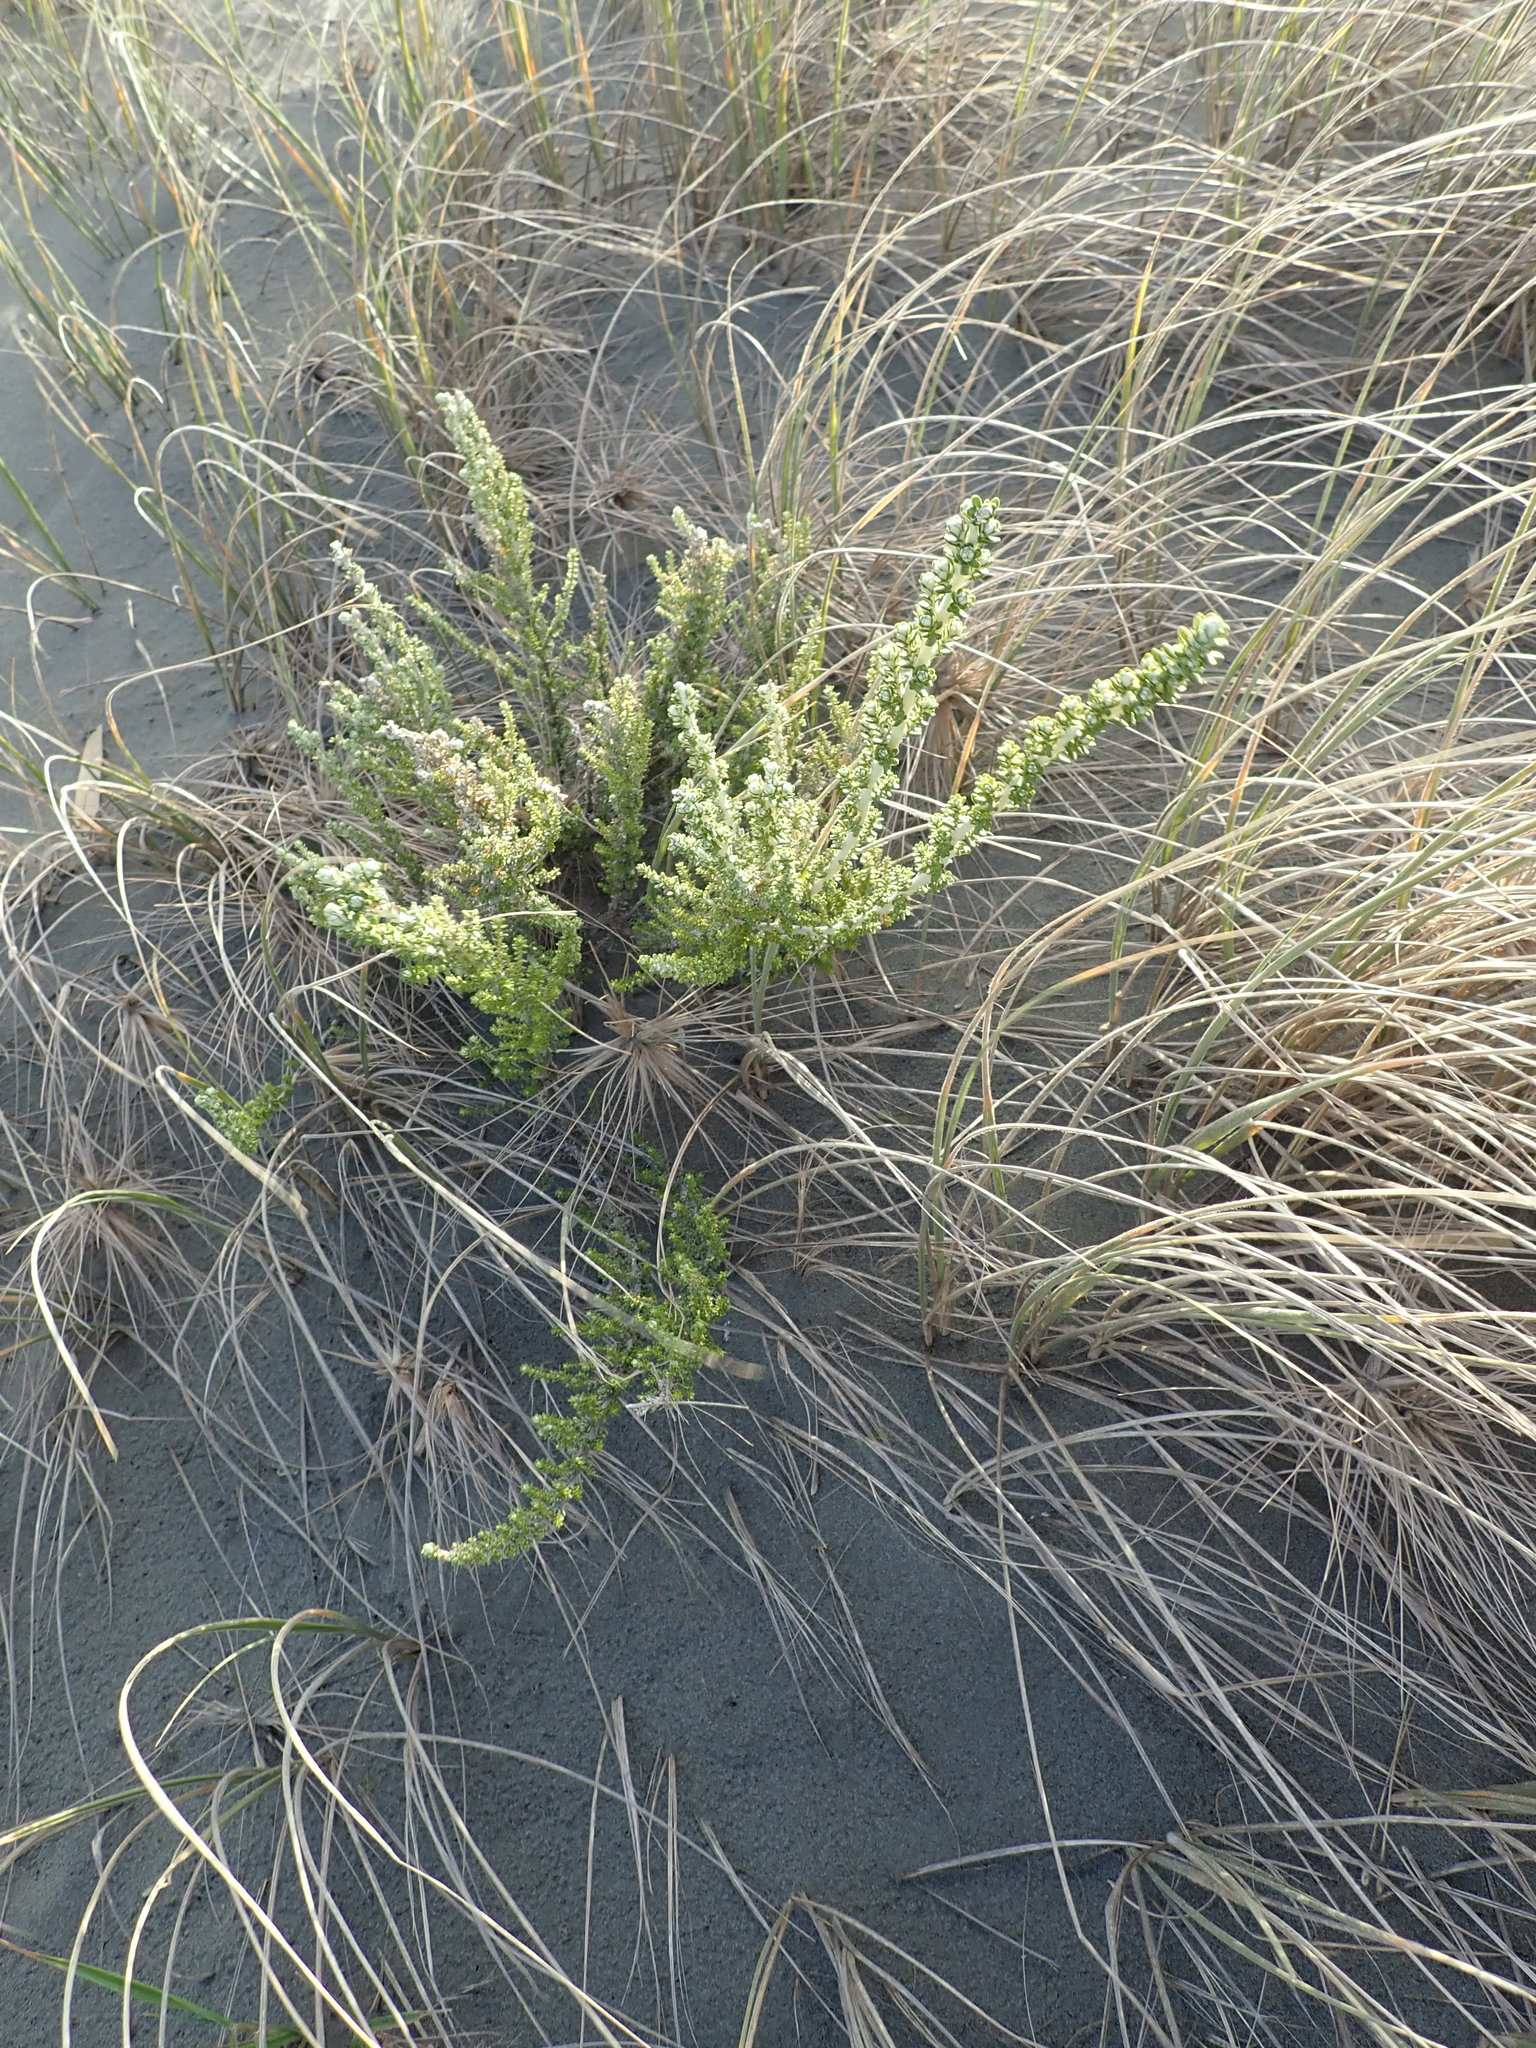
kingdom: Plantae
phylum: Tracheophyta
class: Magnoliopsida
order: Asterales
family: Asteraceae
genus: Ozothamnus
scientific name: Ozothamnus leptophyllus
